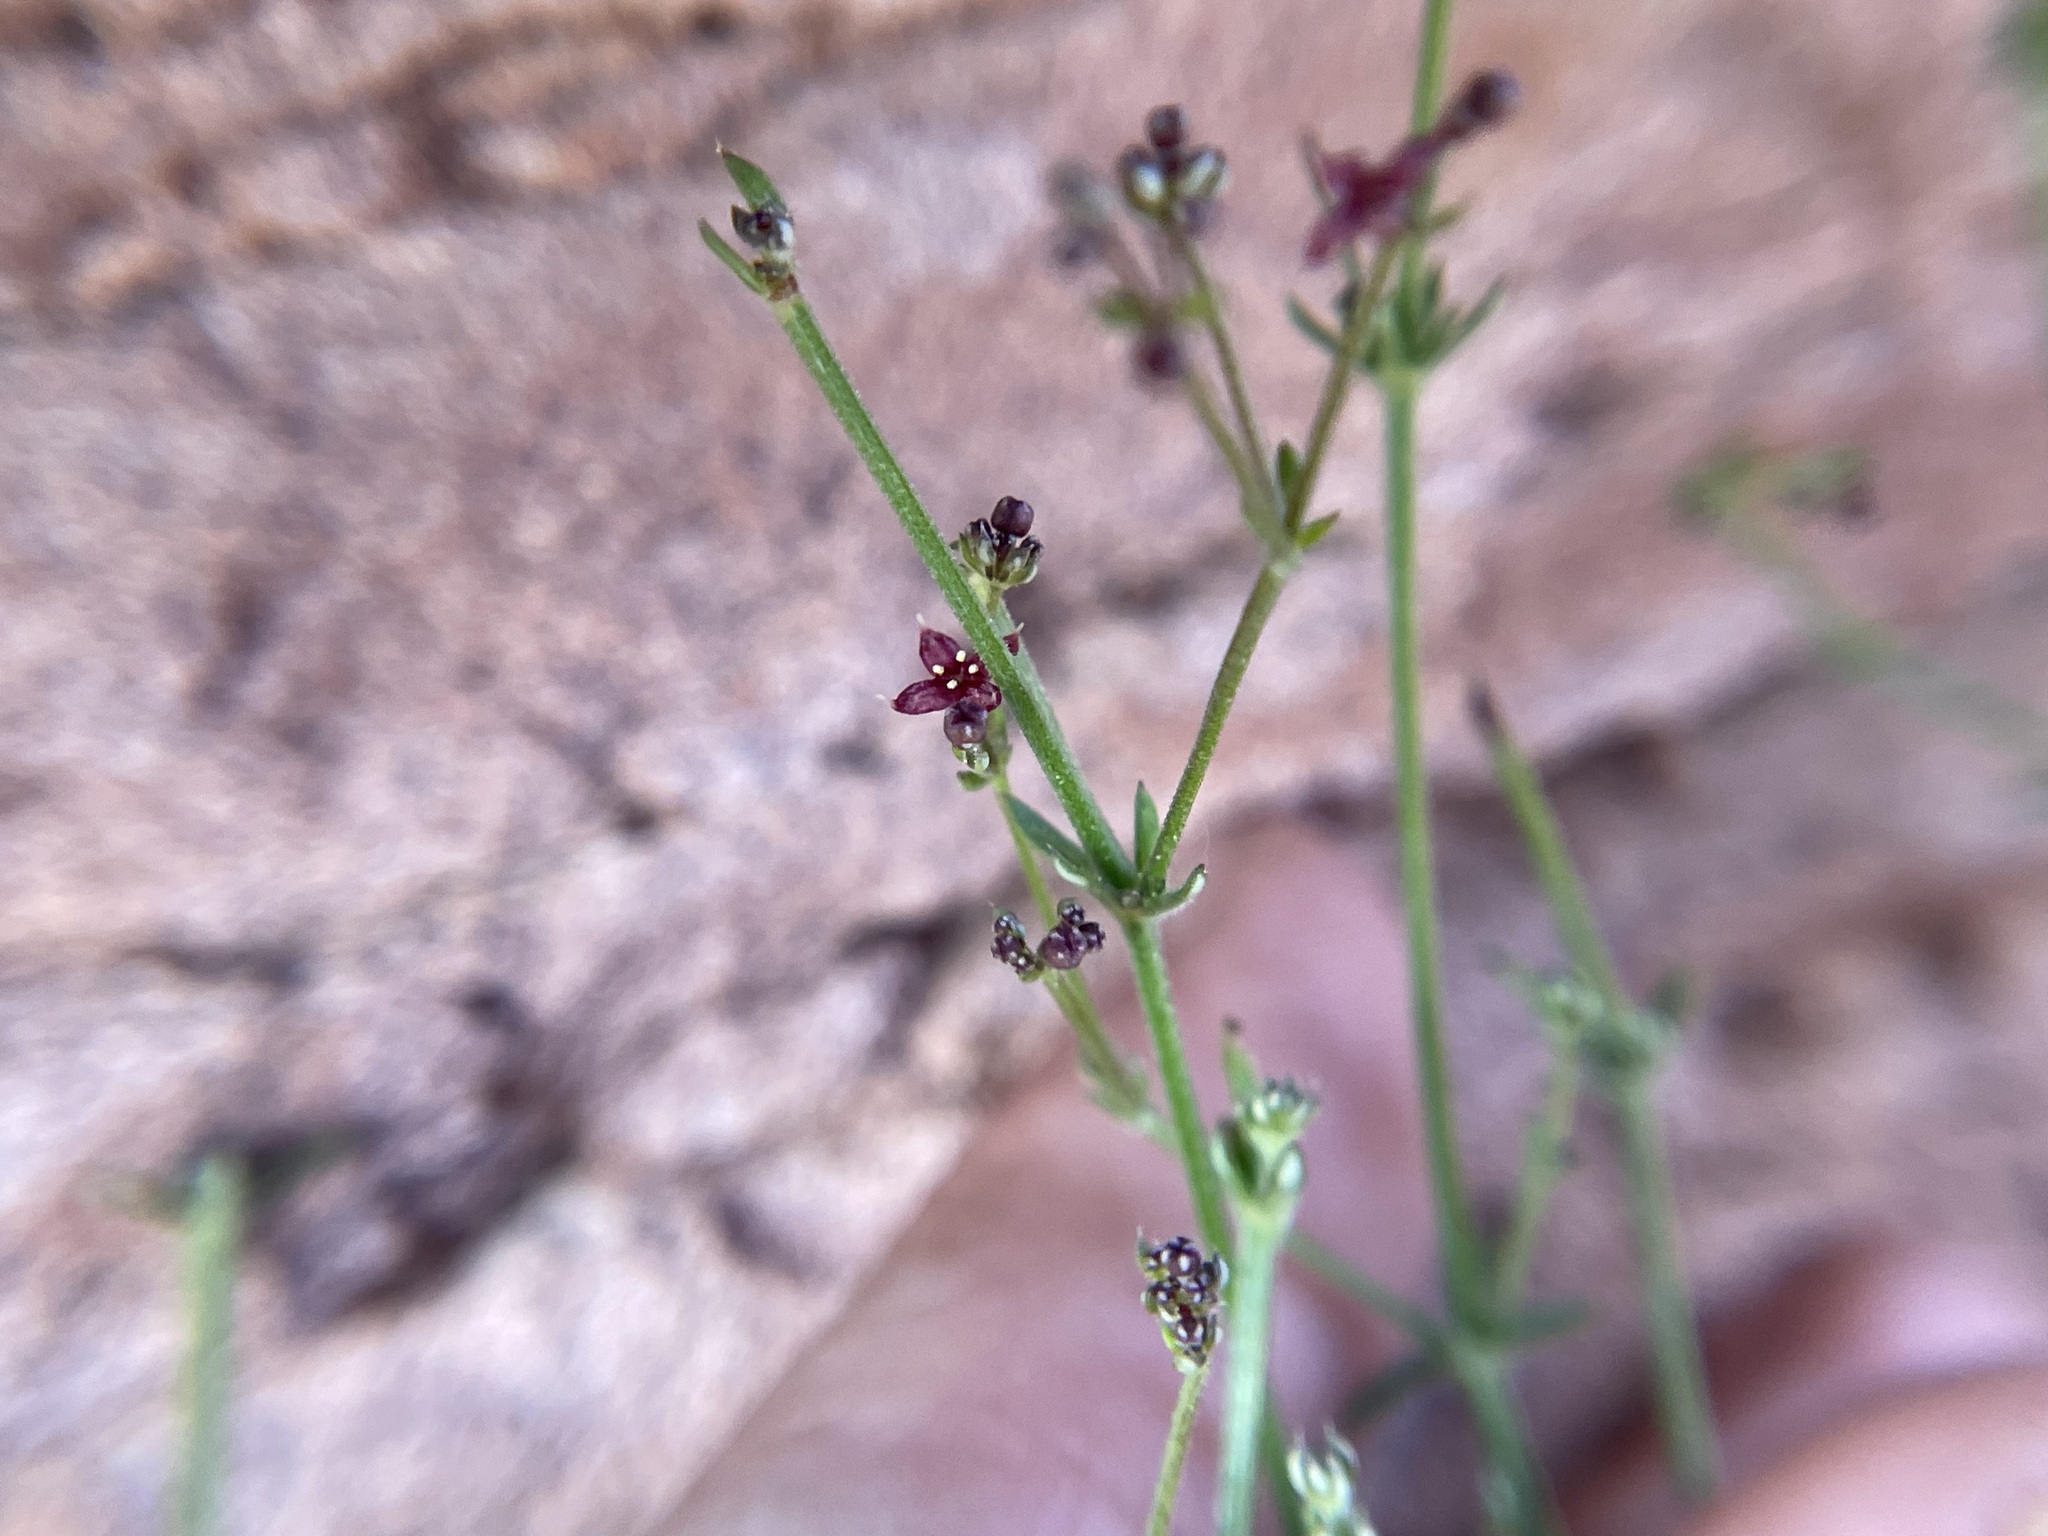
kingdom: Plantae
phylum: Tracheophyta
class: Magnoliopsida
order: Gentianales
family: Rubiaceae
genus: Galium
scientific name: Galium wrightii
